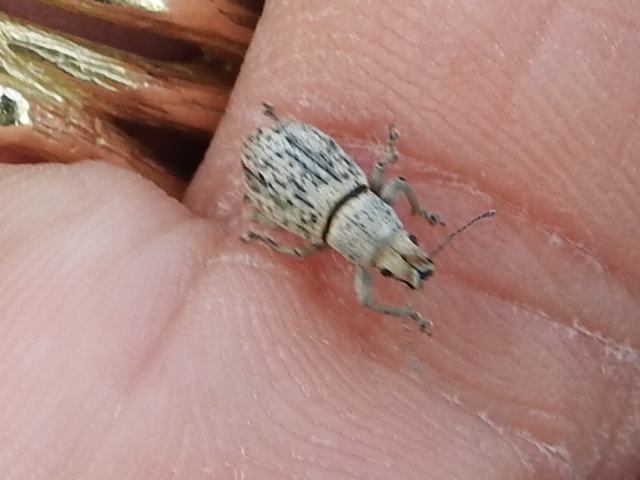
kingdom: Animalia
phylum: Arthropoda
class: Insecta
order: Coleoptera
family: Curculionidae
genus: Artipus
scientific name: Artipus floridanus
